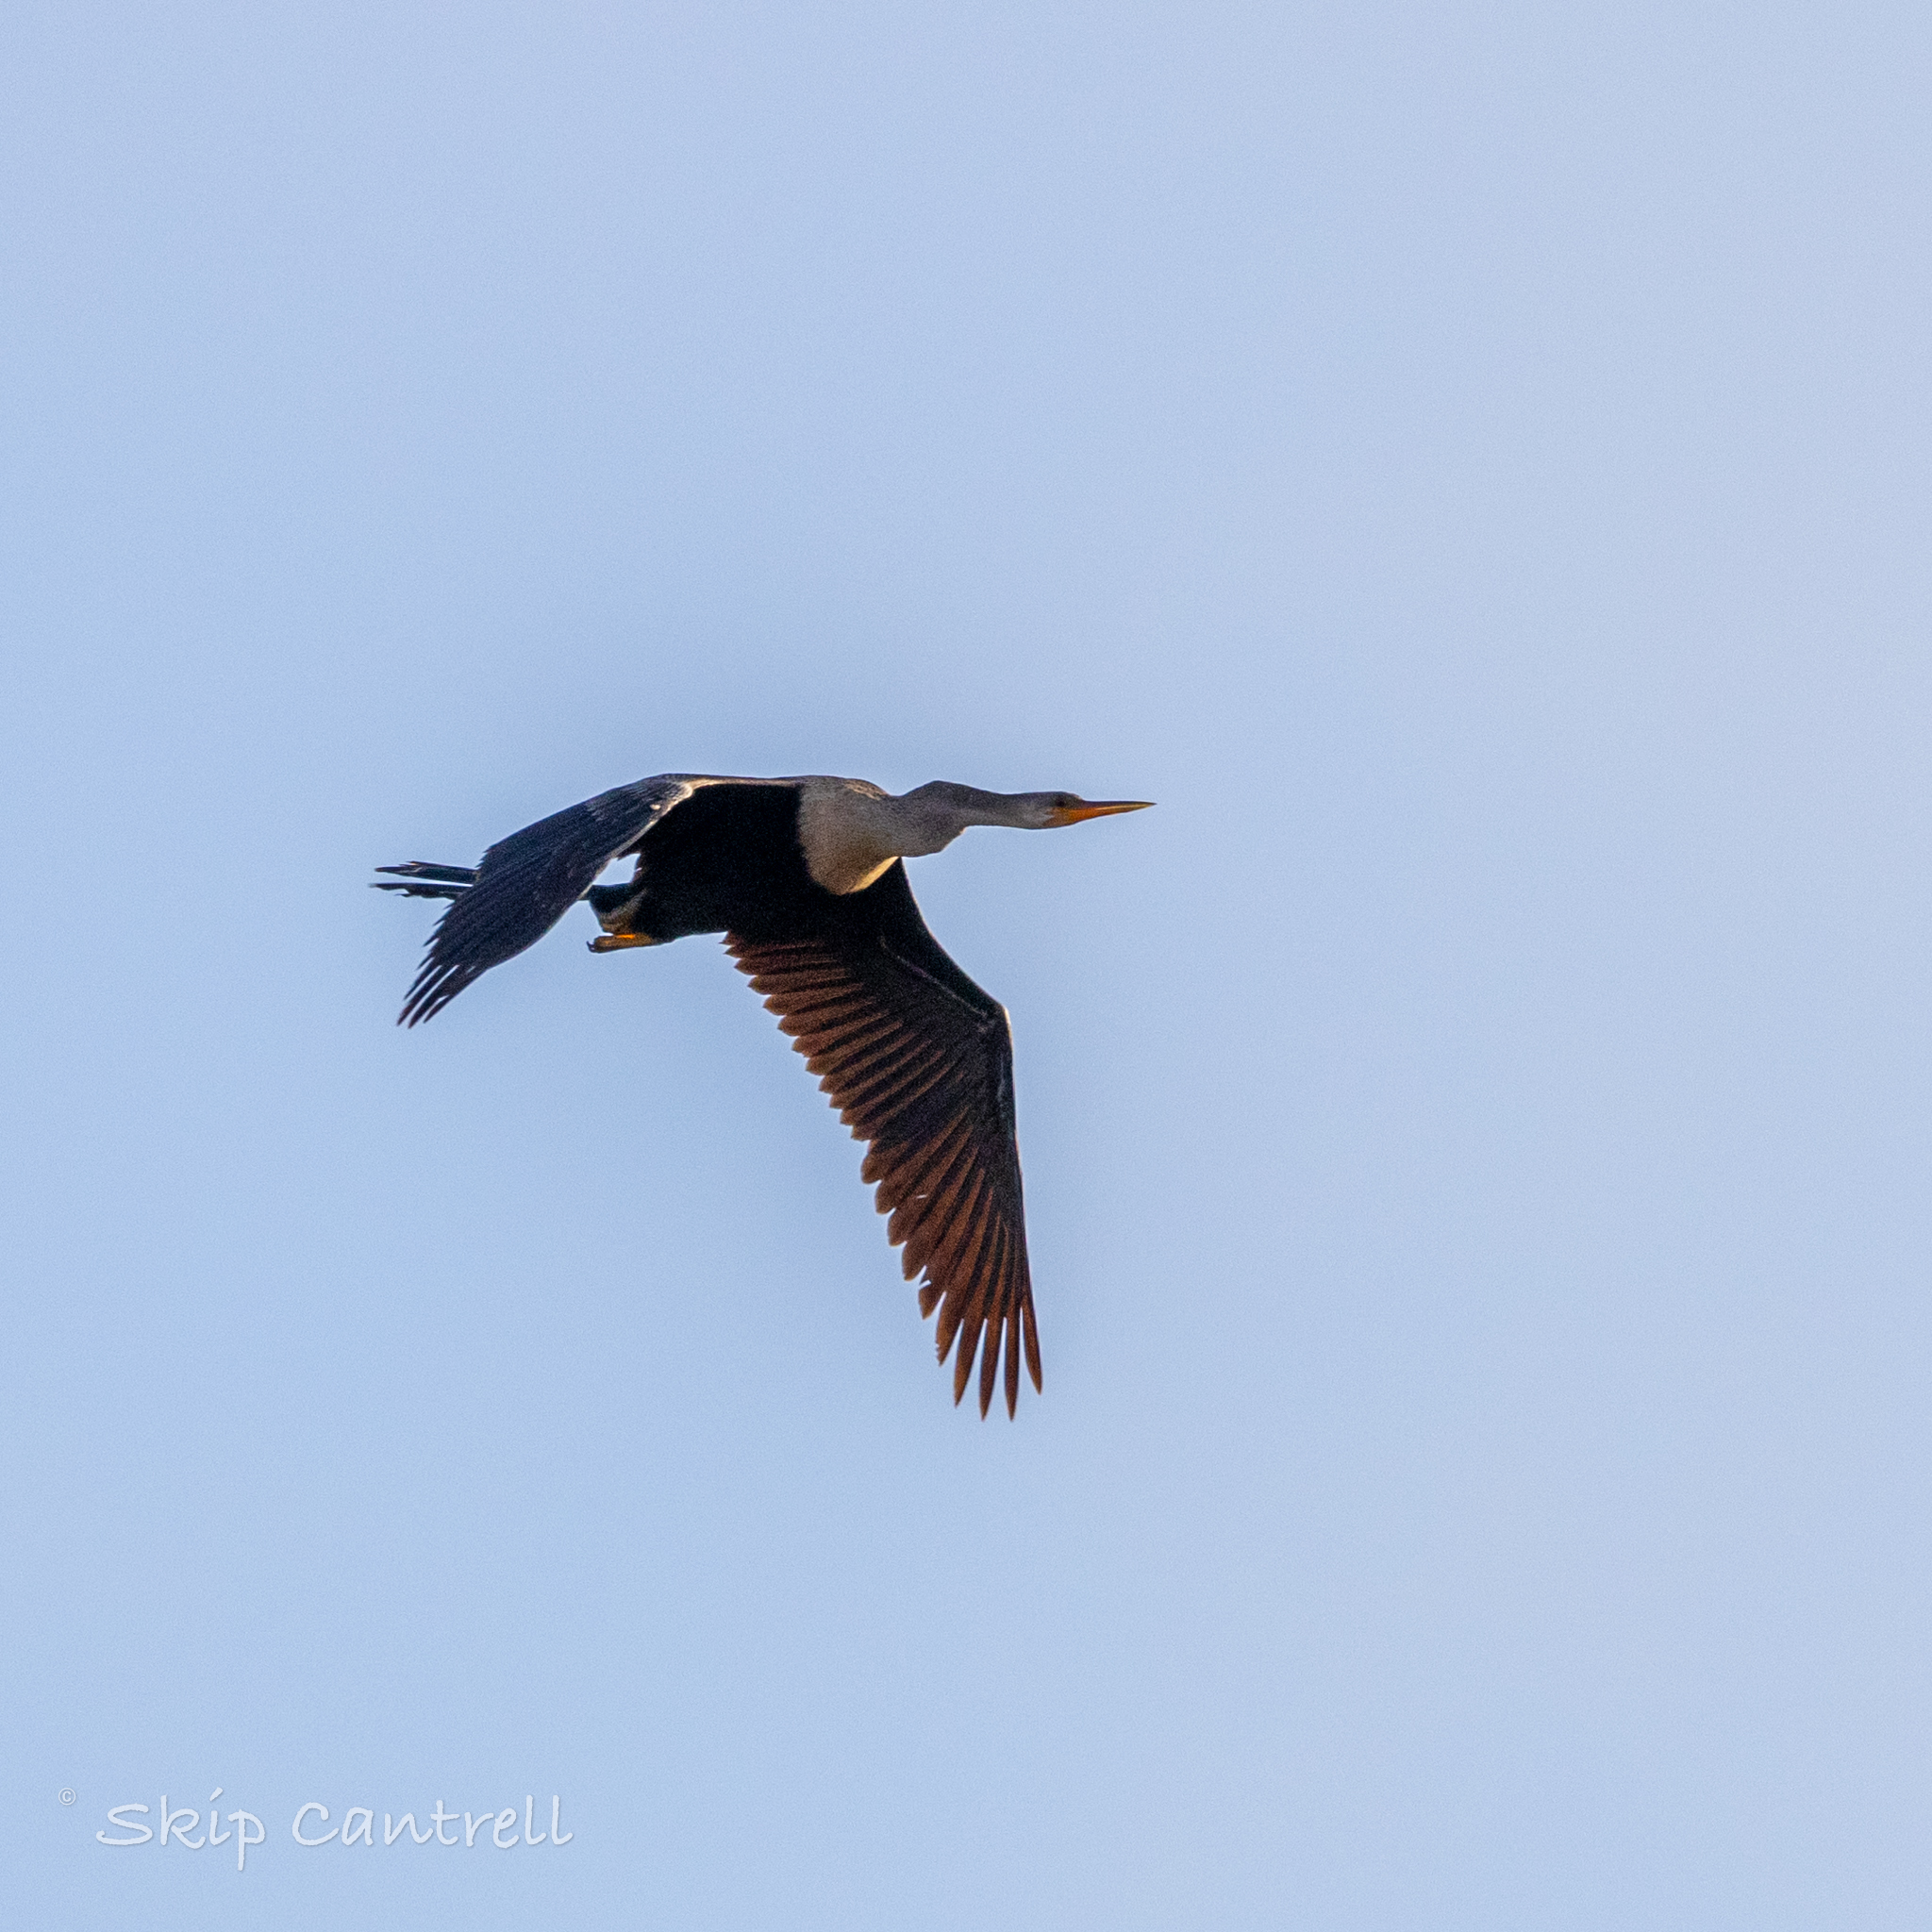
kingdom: Animalia
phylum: Chordata
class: Aves
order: Suliformes
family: Anhingidae
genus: Anhinga
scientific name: Anhinga anhinga
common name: Anhinga
